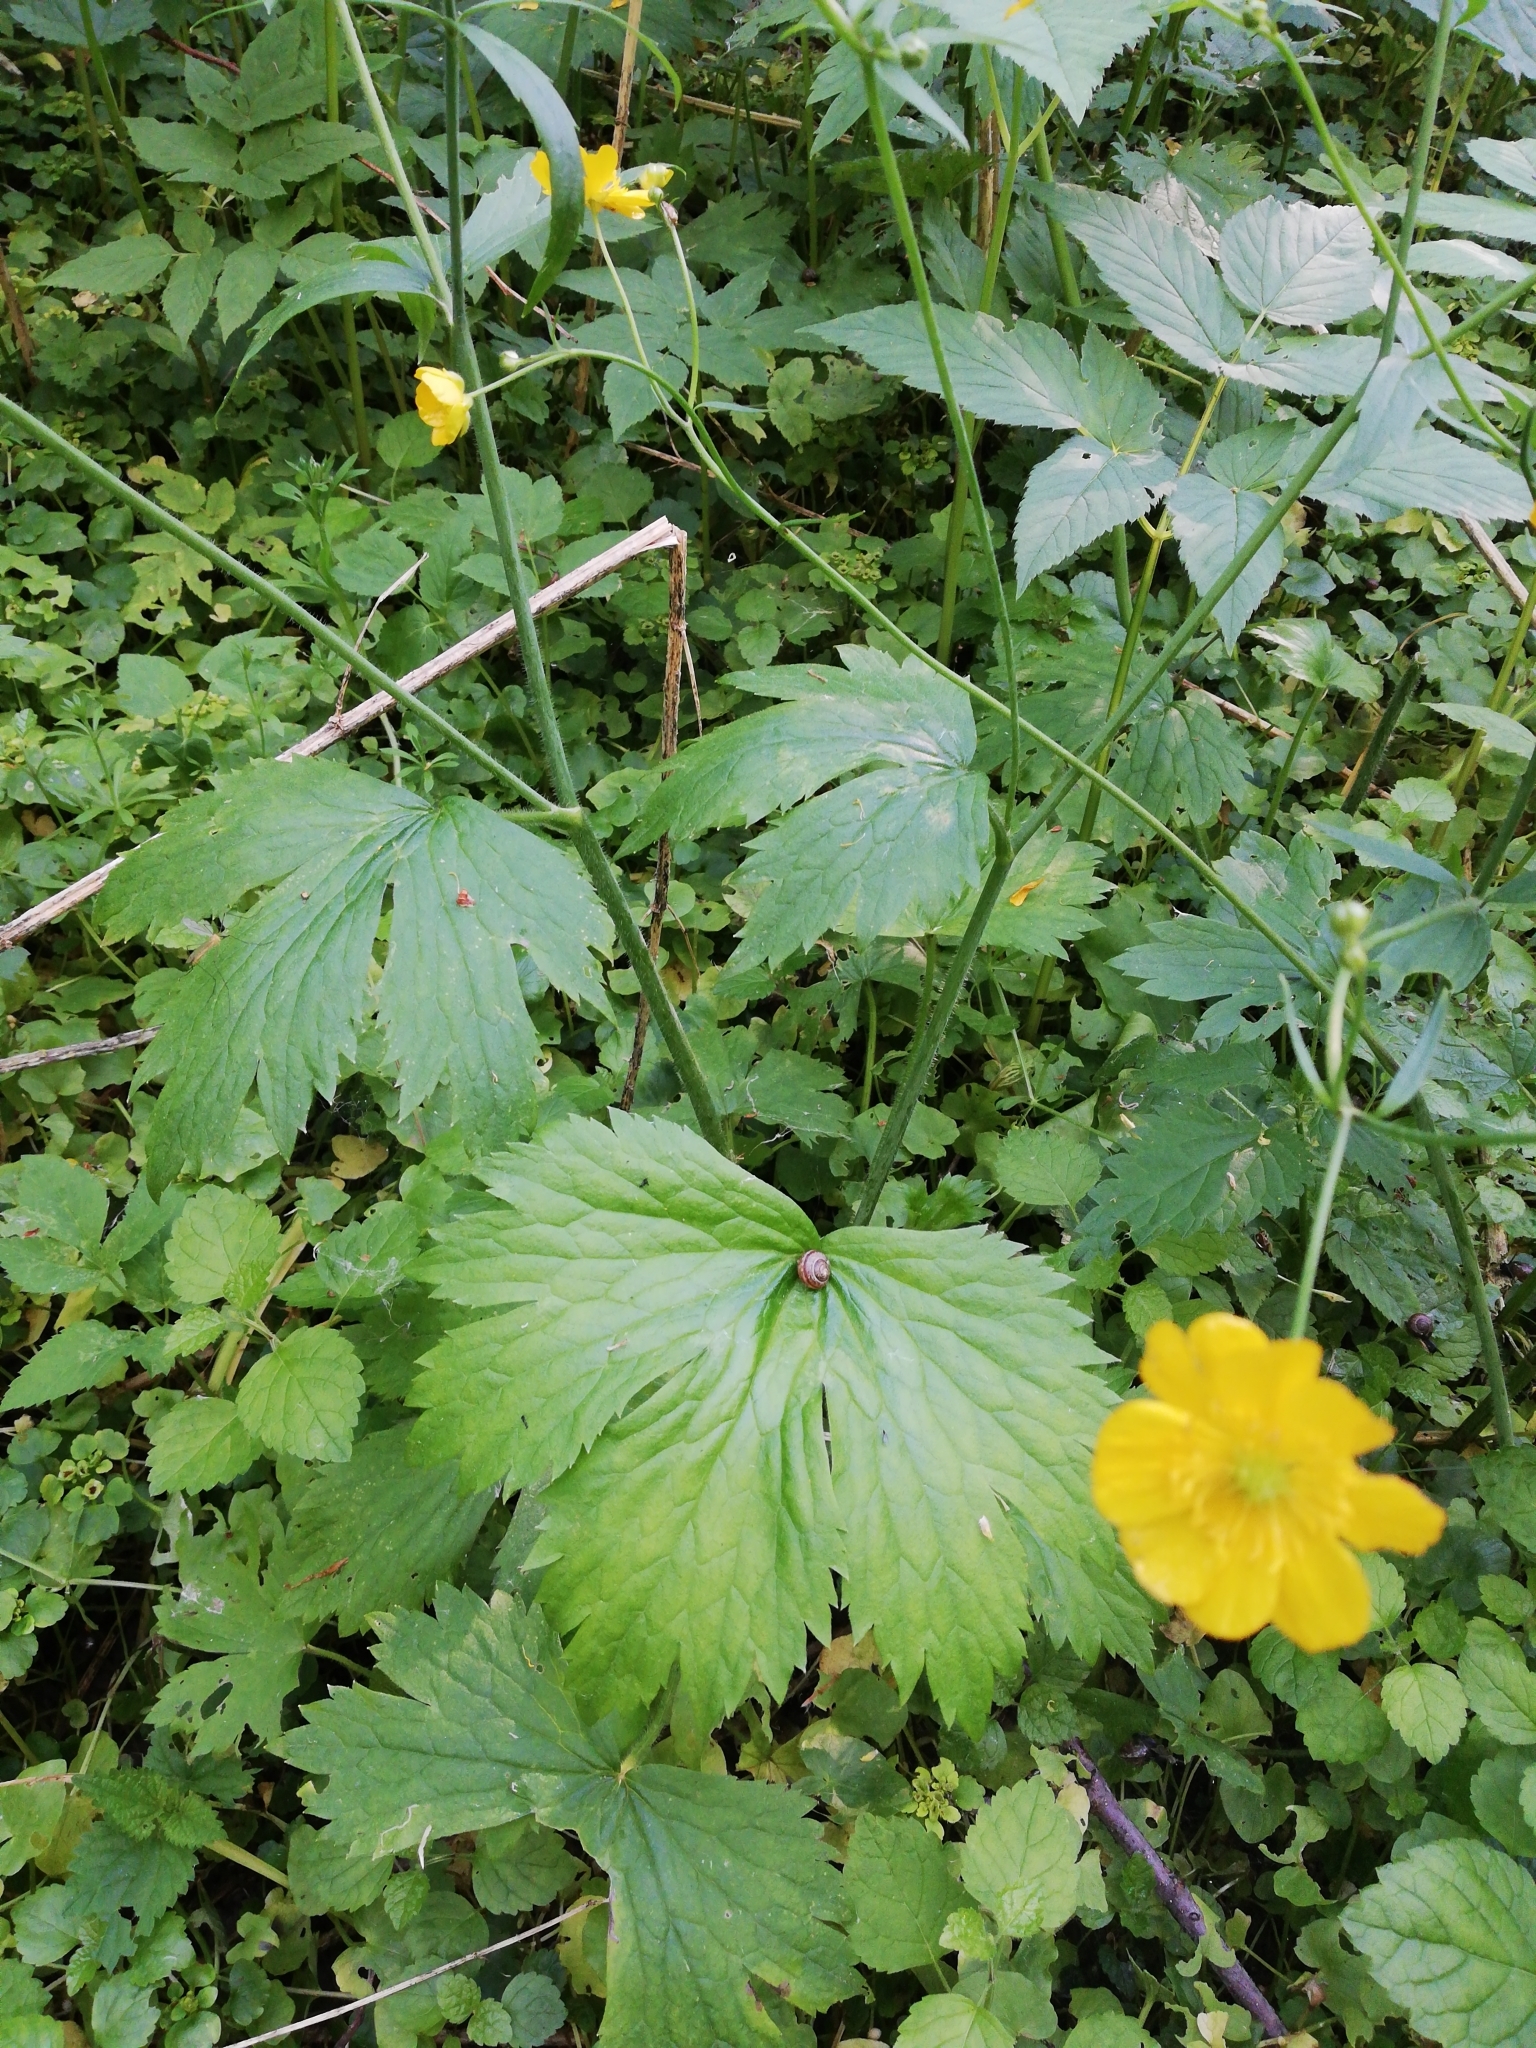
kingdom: Plantae
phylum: Tracheophyta
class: Magnoliopsida
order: Ranunculales
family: Ranunculaceae
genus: Ranunculus
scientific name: Ranunculus lanuginosus
